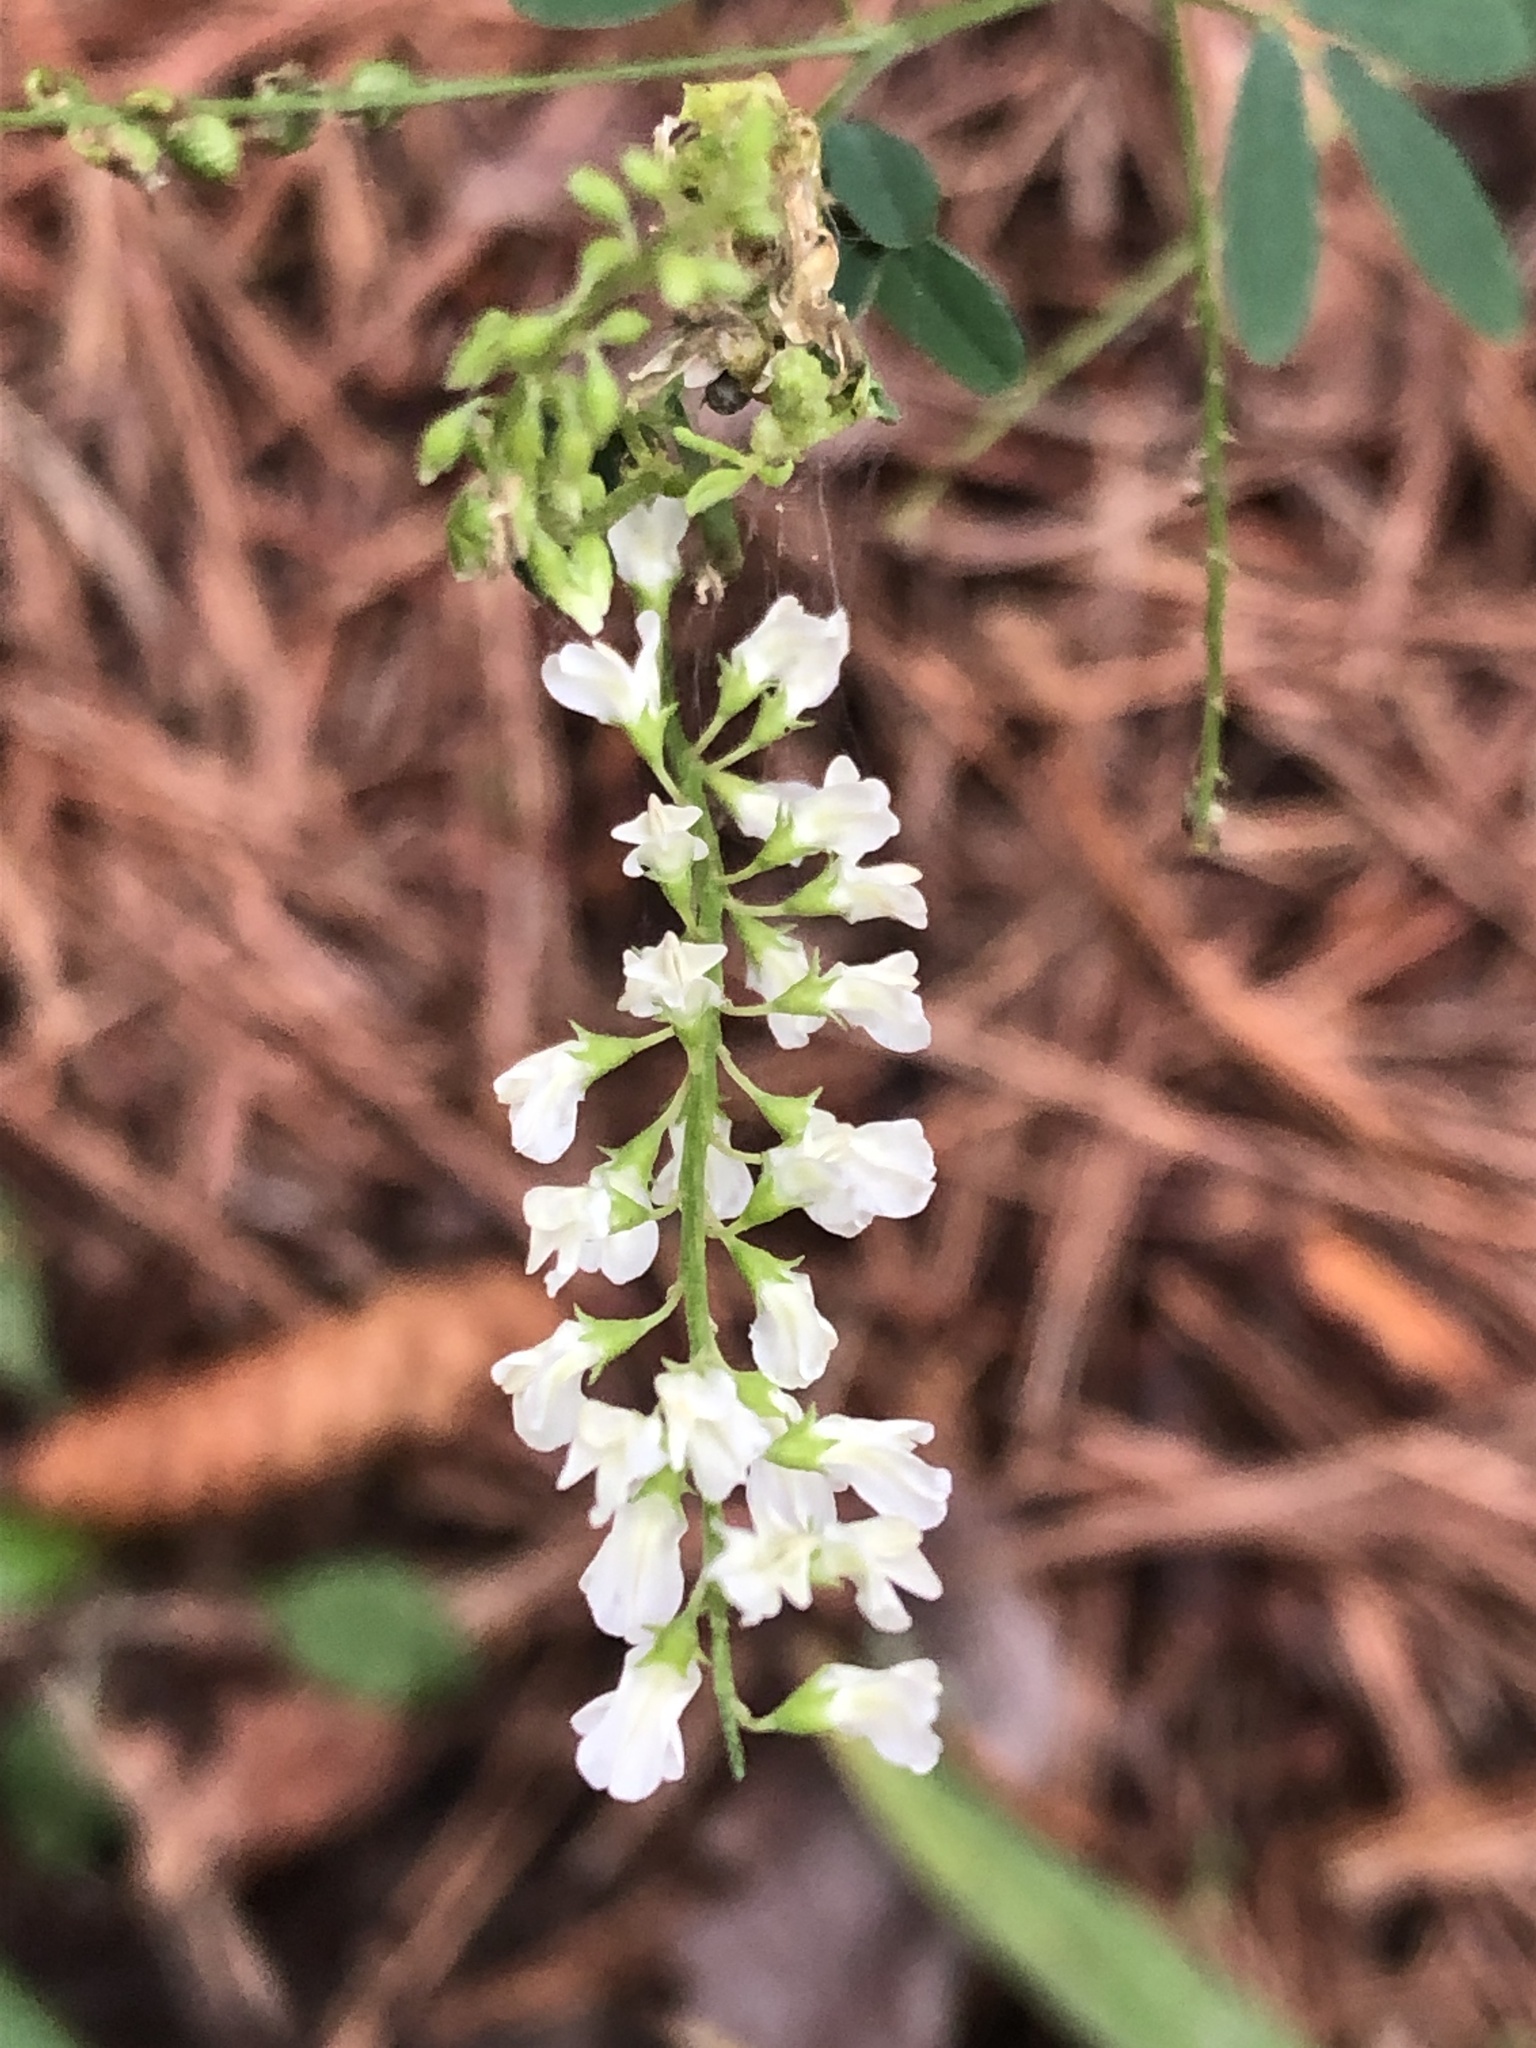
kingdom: Plantae
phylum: Tracheophyta
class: Magnoliopsida
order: Fabales
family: Fabaceae
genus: Melilotus
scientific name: Melilotus albus
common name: White melilot
